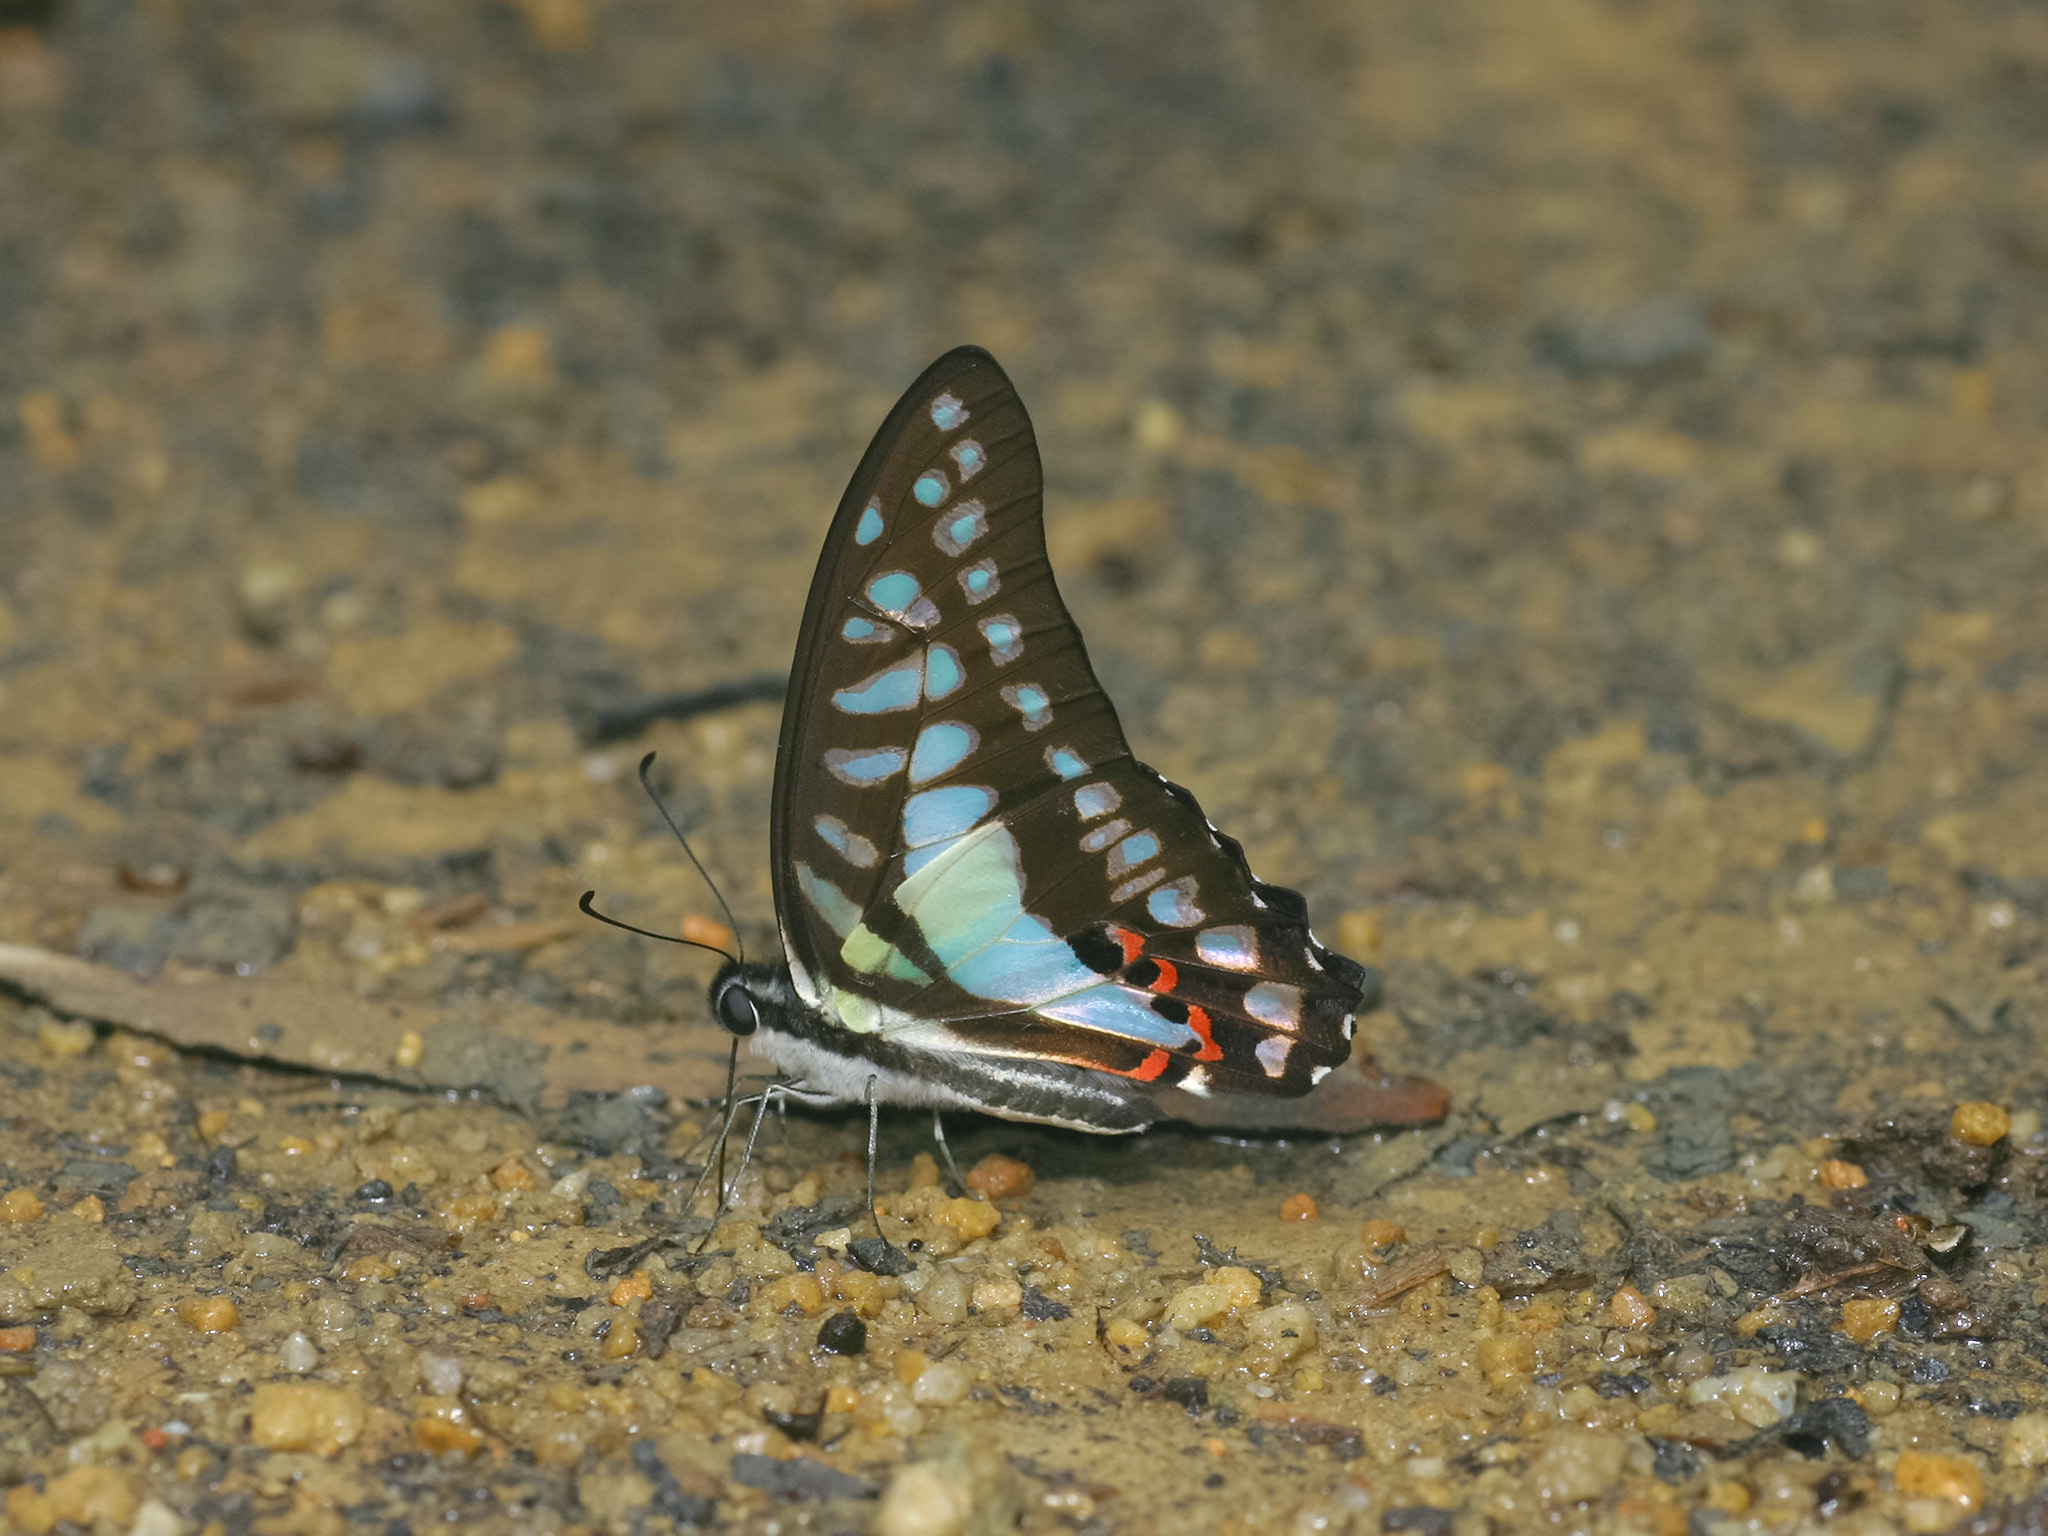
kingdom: Animalia
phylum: Arthropoda
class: Insecta
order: Lepidoptera
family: Papilionidae
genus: Graphium
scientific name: Graphium evemon
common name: Lesser jay
